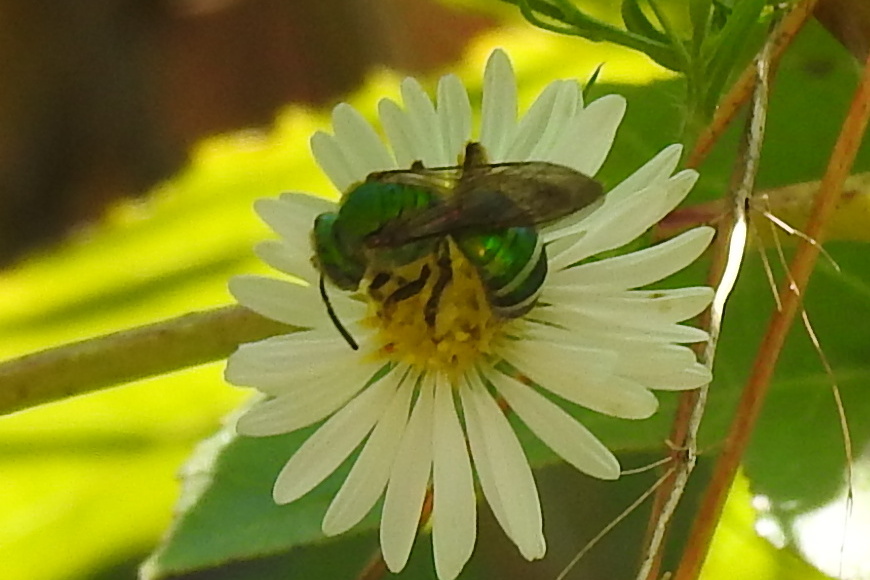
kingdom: Animalia
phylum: Arthropoda
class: Insecta
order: Hymenoptera
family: Halictidae
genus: Agapostemon
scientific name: Agapostemon splendens
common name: Brown-winged striped sweat bee
